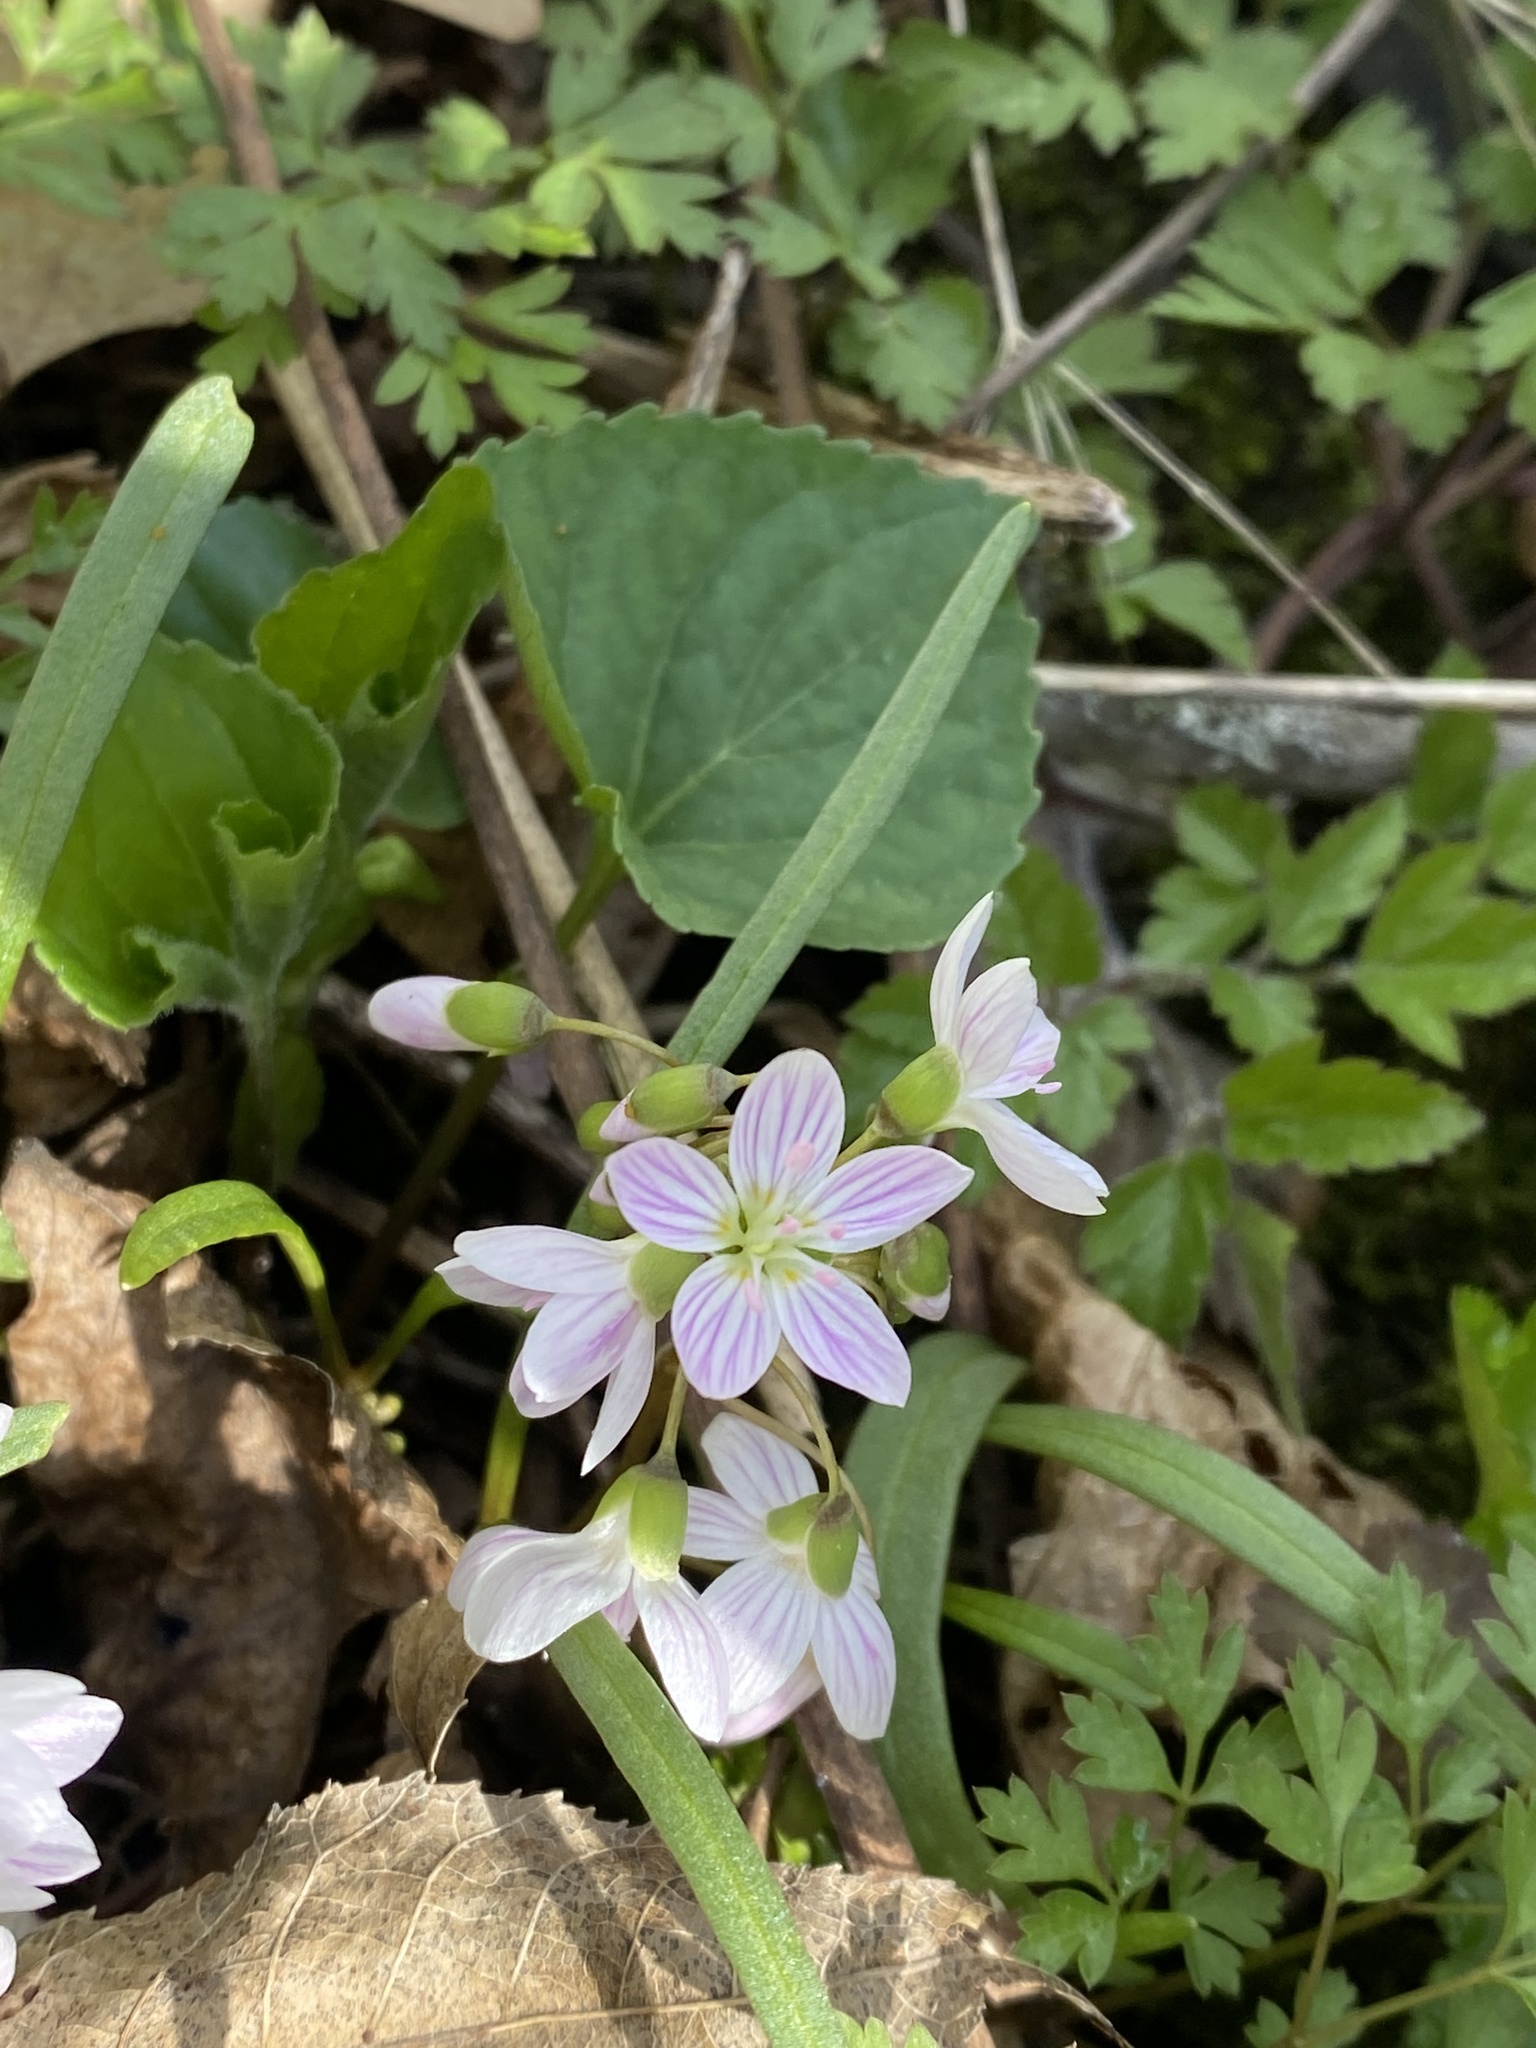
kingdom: Plantae
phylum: Tracheophyta
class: Magnoliopsida
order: Caryophyllales
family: Montiaceae
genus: Claytonia
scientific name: Claytonia virginica
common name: Virginia springbeauty
